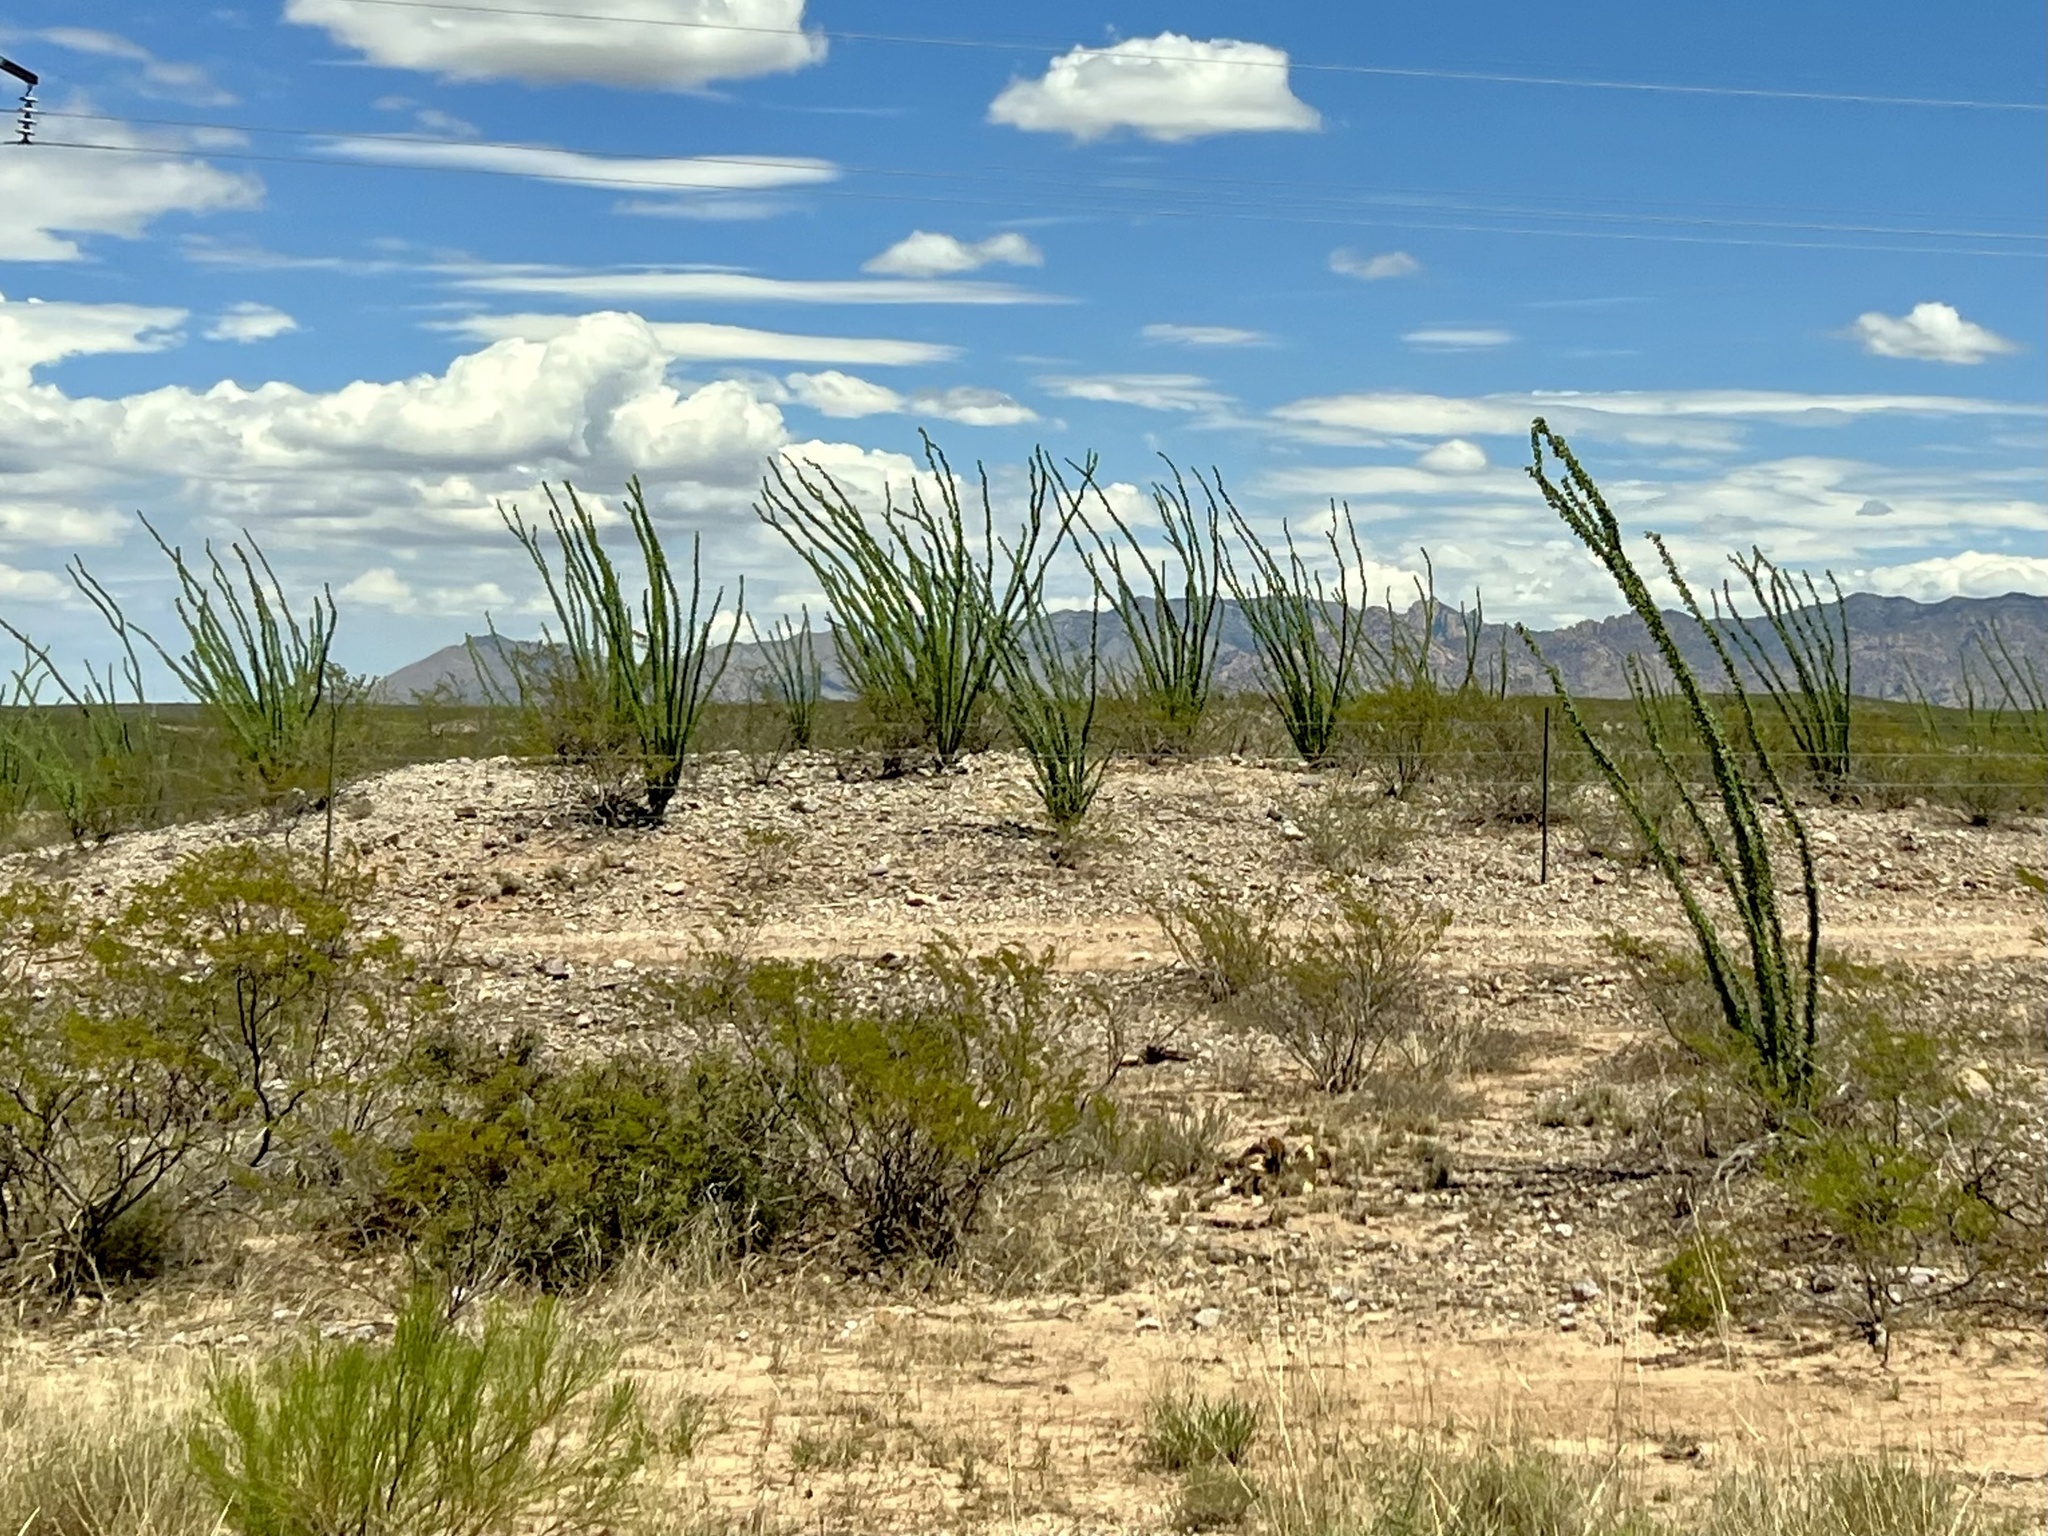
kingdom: Plantae
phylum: Tracheophyta
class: Magnoliopsida
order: Ericales
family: Fouquieriaceae
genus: Fouquieria
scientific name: Fouquieria splendens
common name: Vine-cactus
